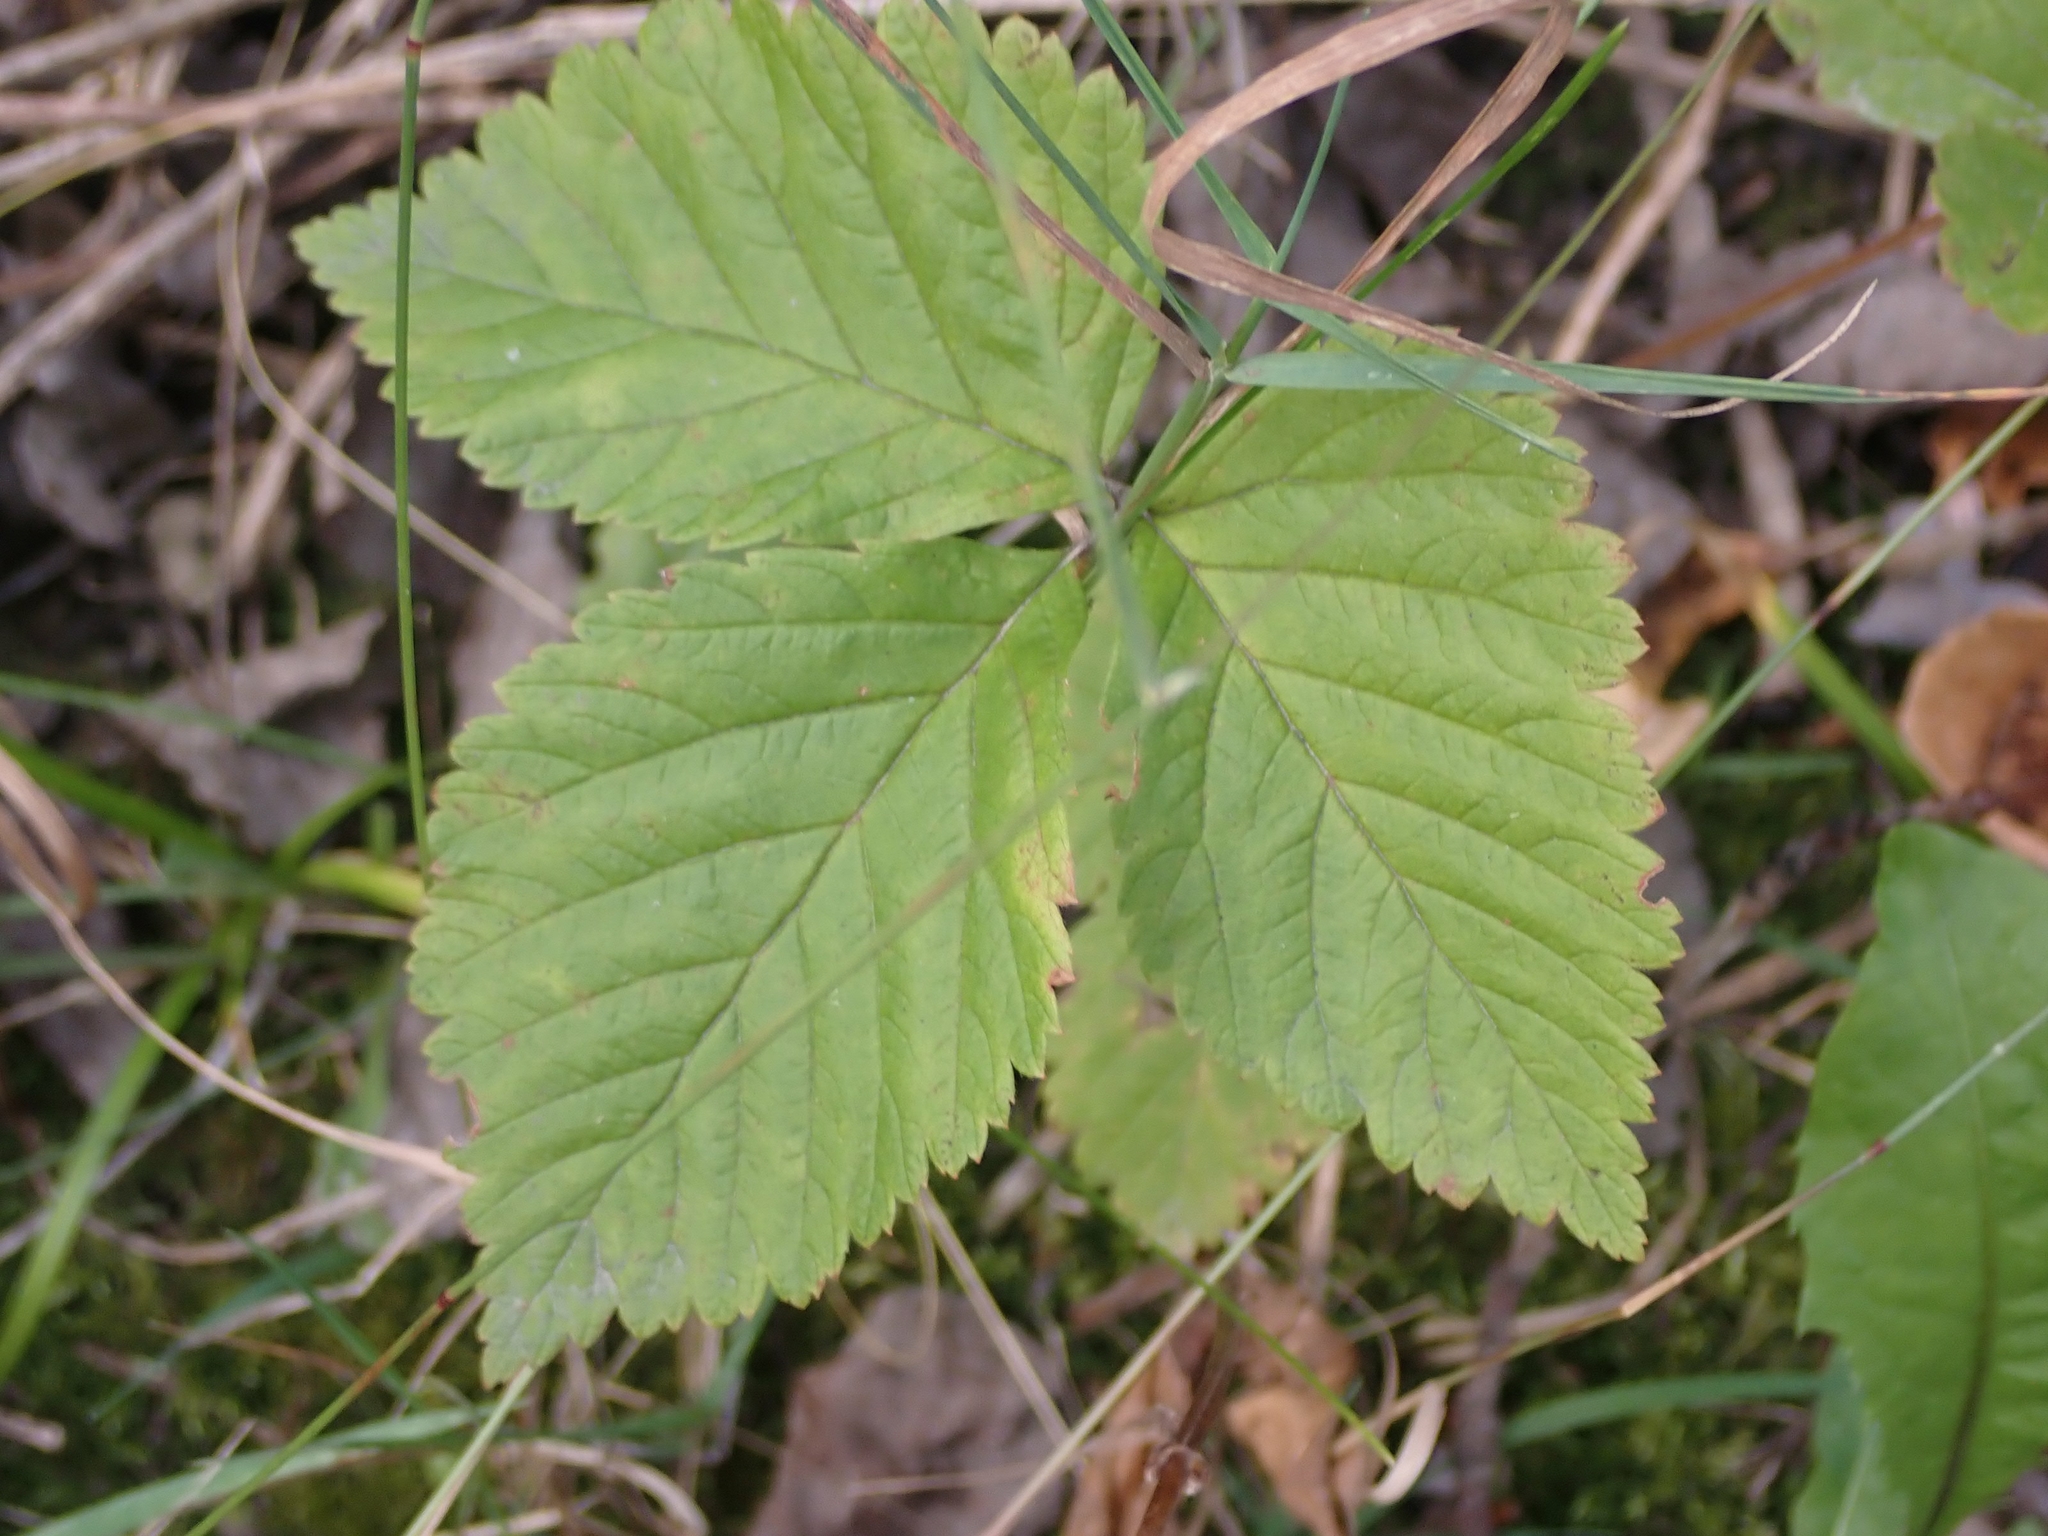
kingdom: Plantae
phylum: Tracheophyta
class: Magnoliopsida
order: Rosales
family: Rosaceae
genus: Rubus
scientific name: Rubus pubescens
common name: Dwarf raspberry
